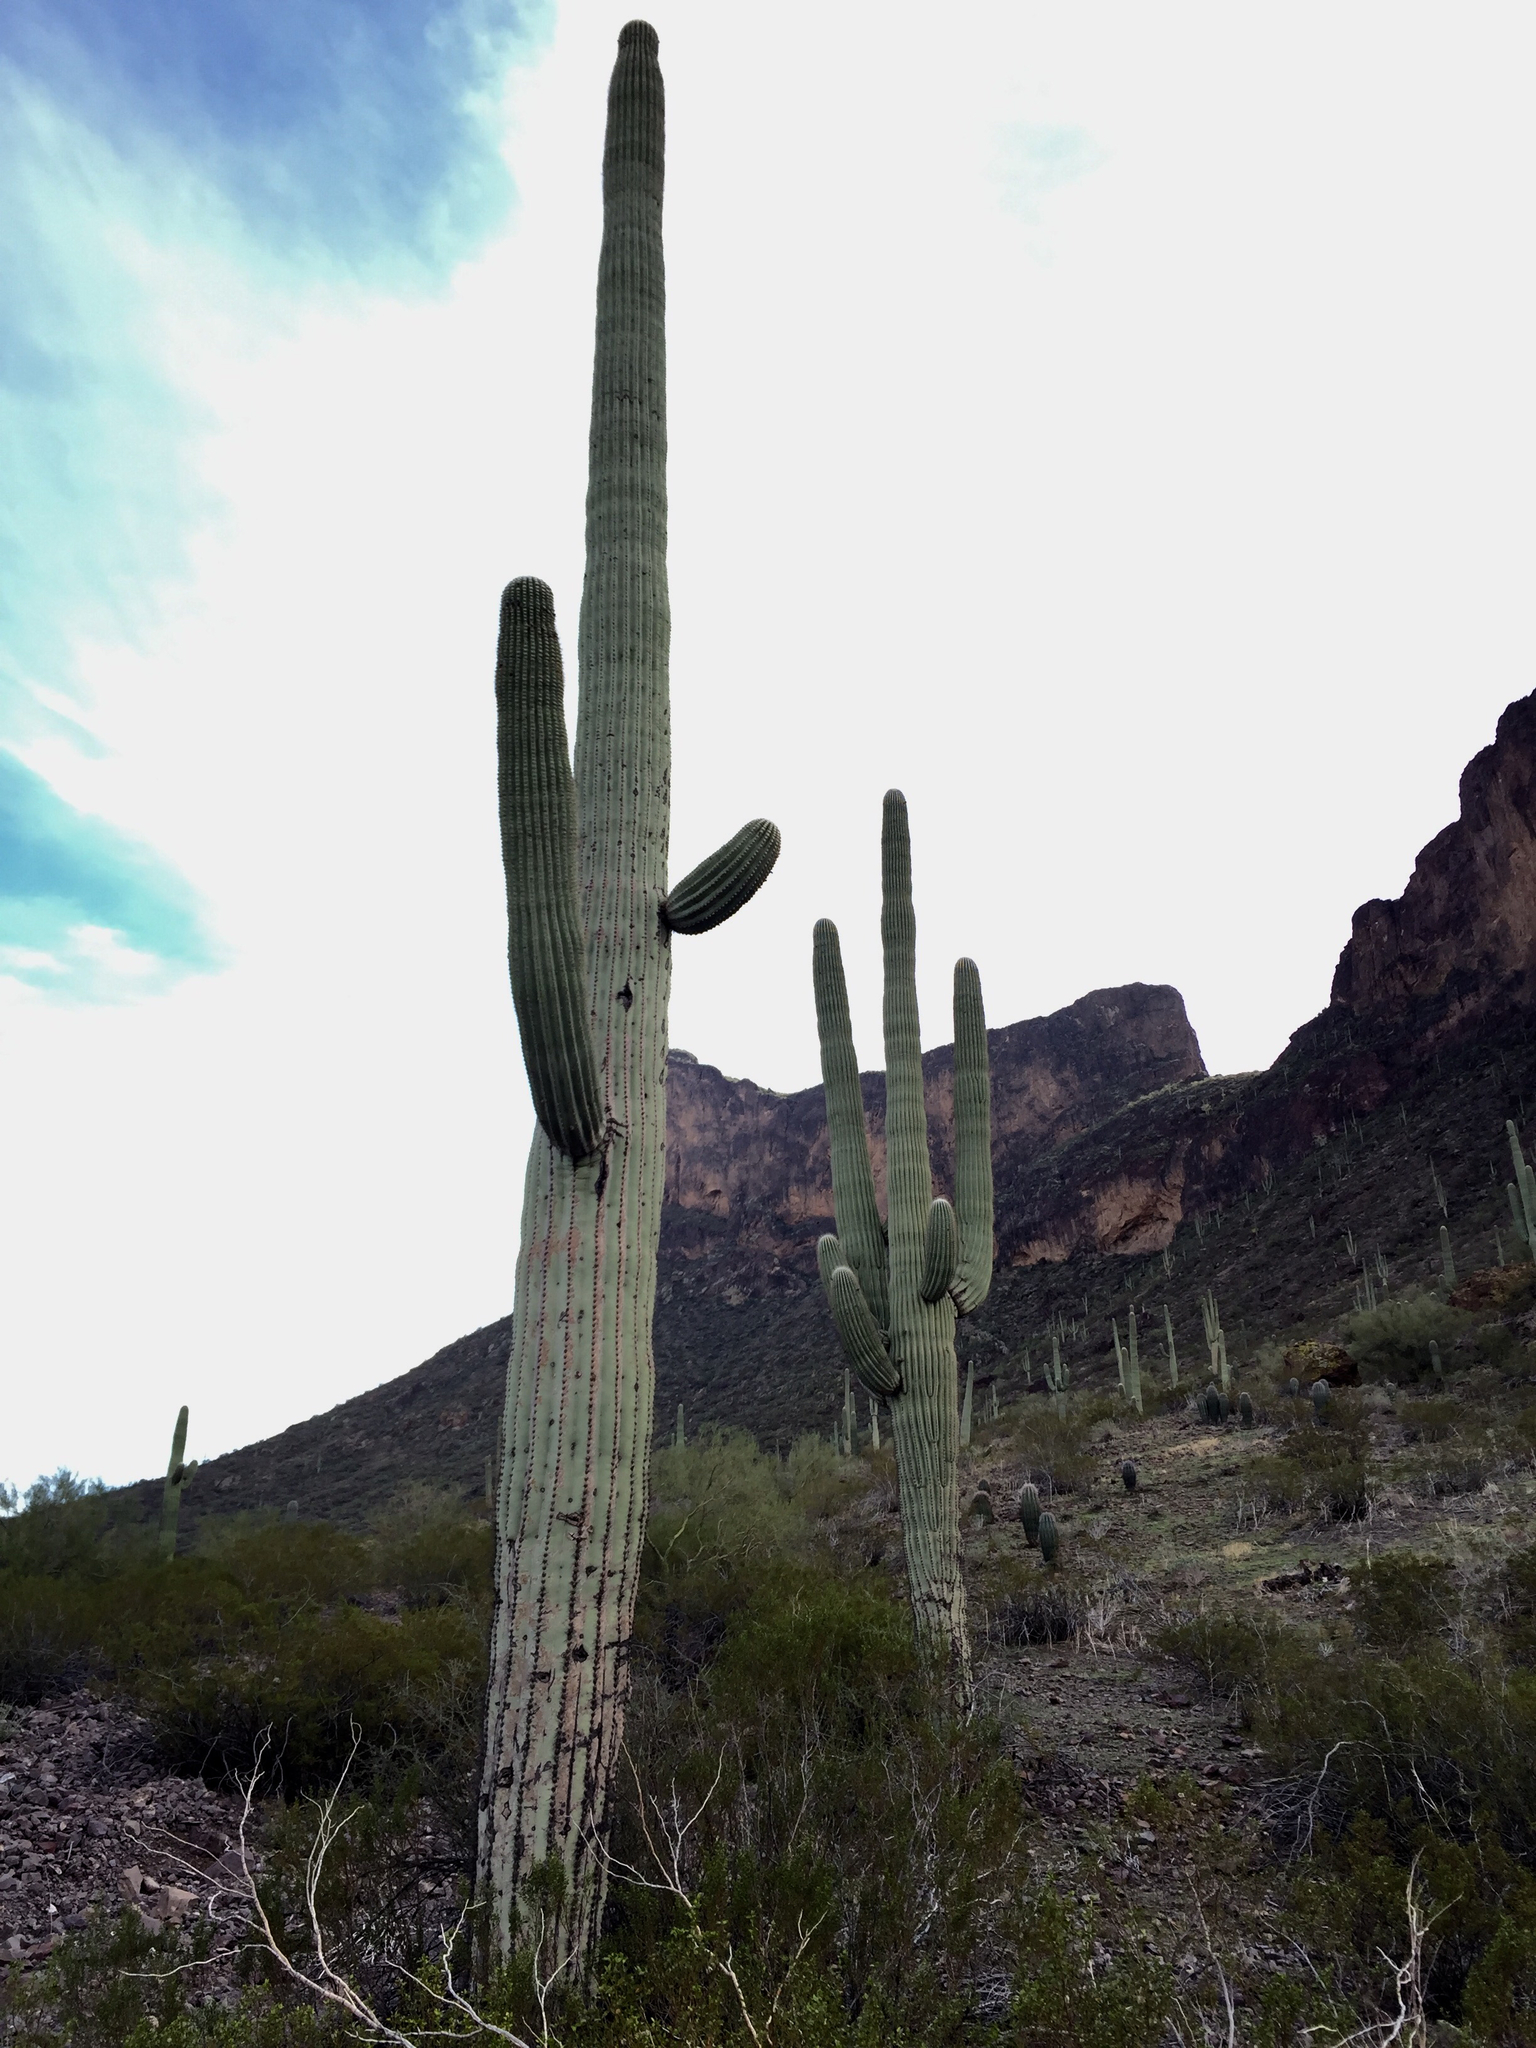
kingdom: Plantae
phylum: Tracheophyta
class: Magnoliopsida
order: Caryophyllales
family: Cactaceae
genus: Carnegiea
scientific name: Carnegiea gigantea
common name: Saguaro
